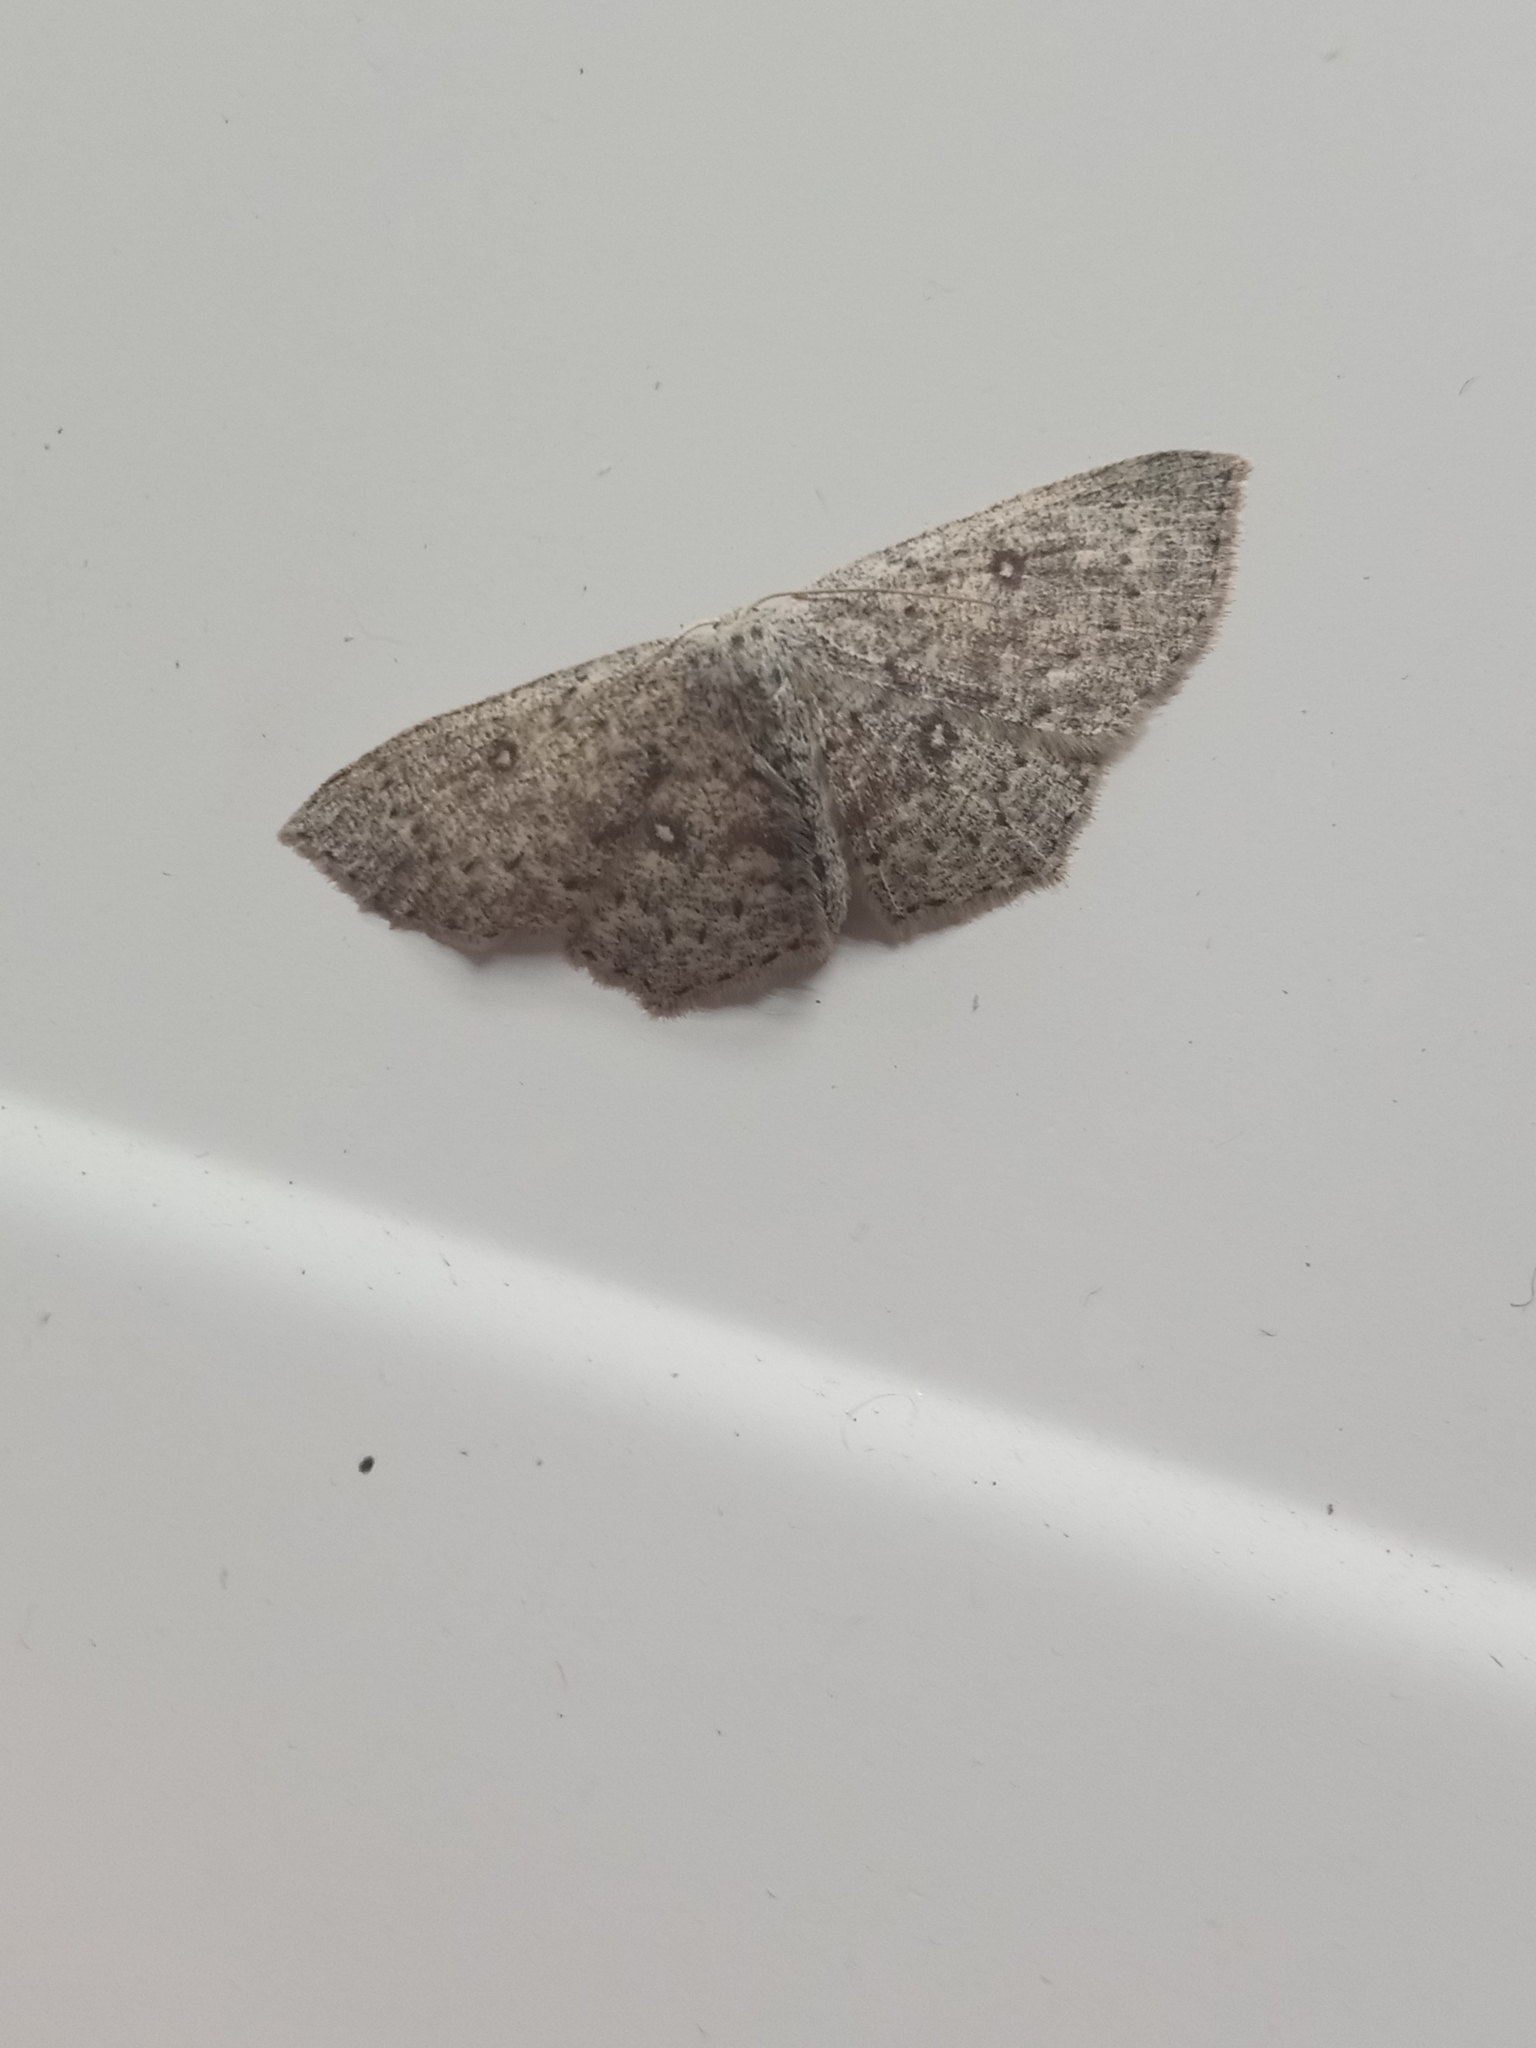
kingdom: Animalia
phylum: Arthropoda
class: Insecta
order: Lepidoptera
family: Geometridae
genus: Cyclophora
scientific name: Cyclophora pendularia
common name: Dingy mocha
